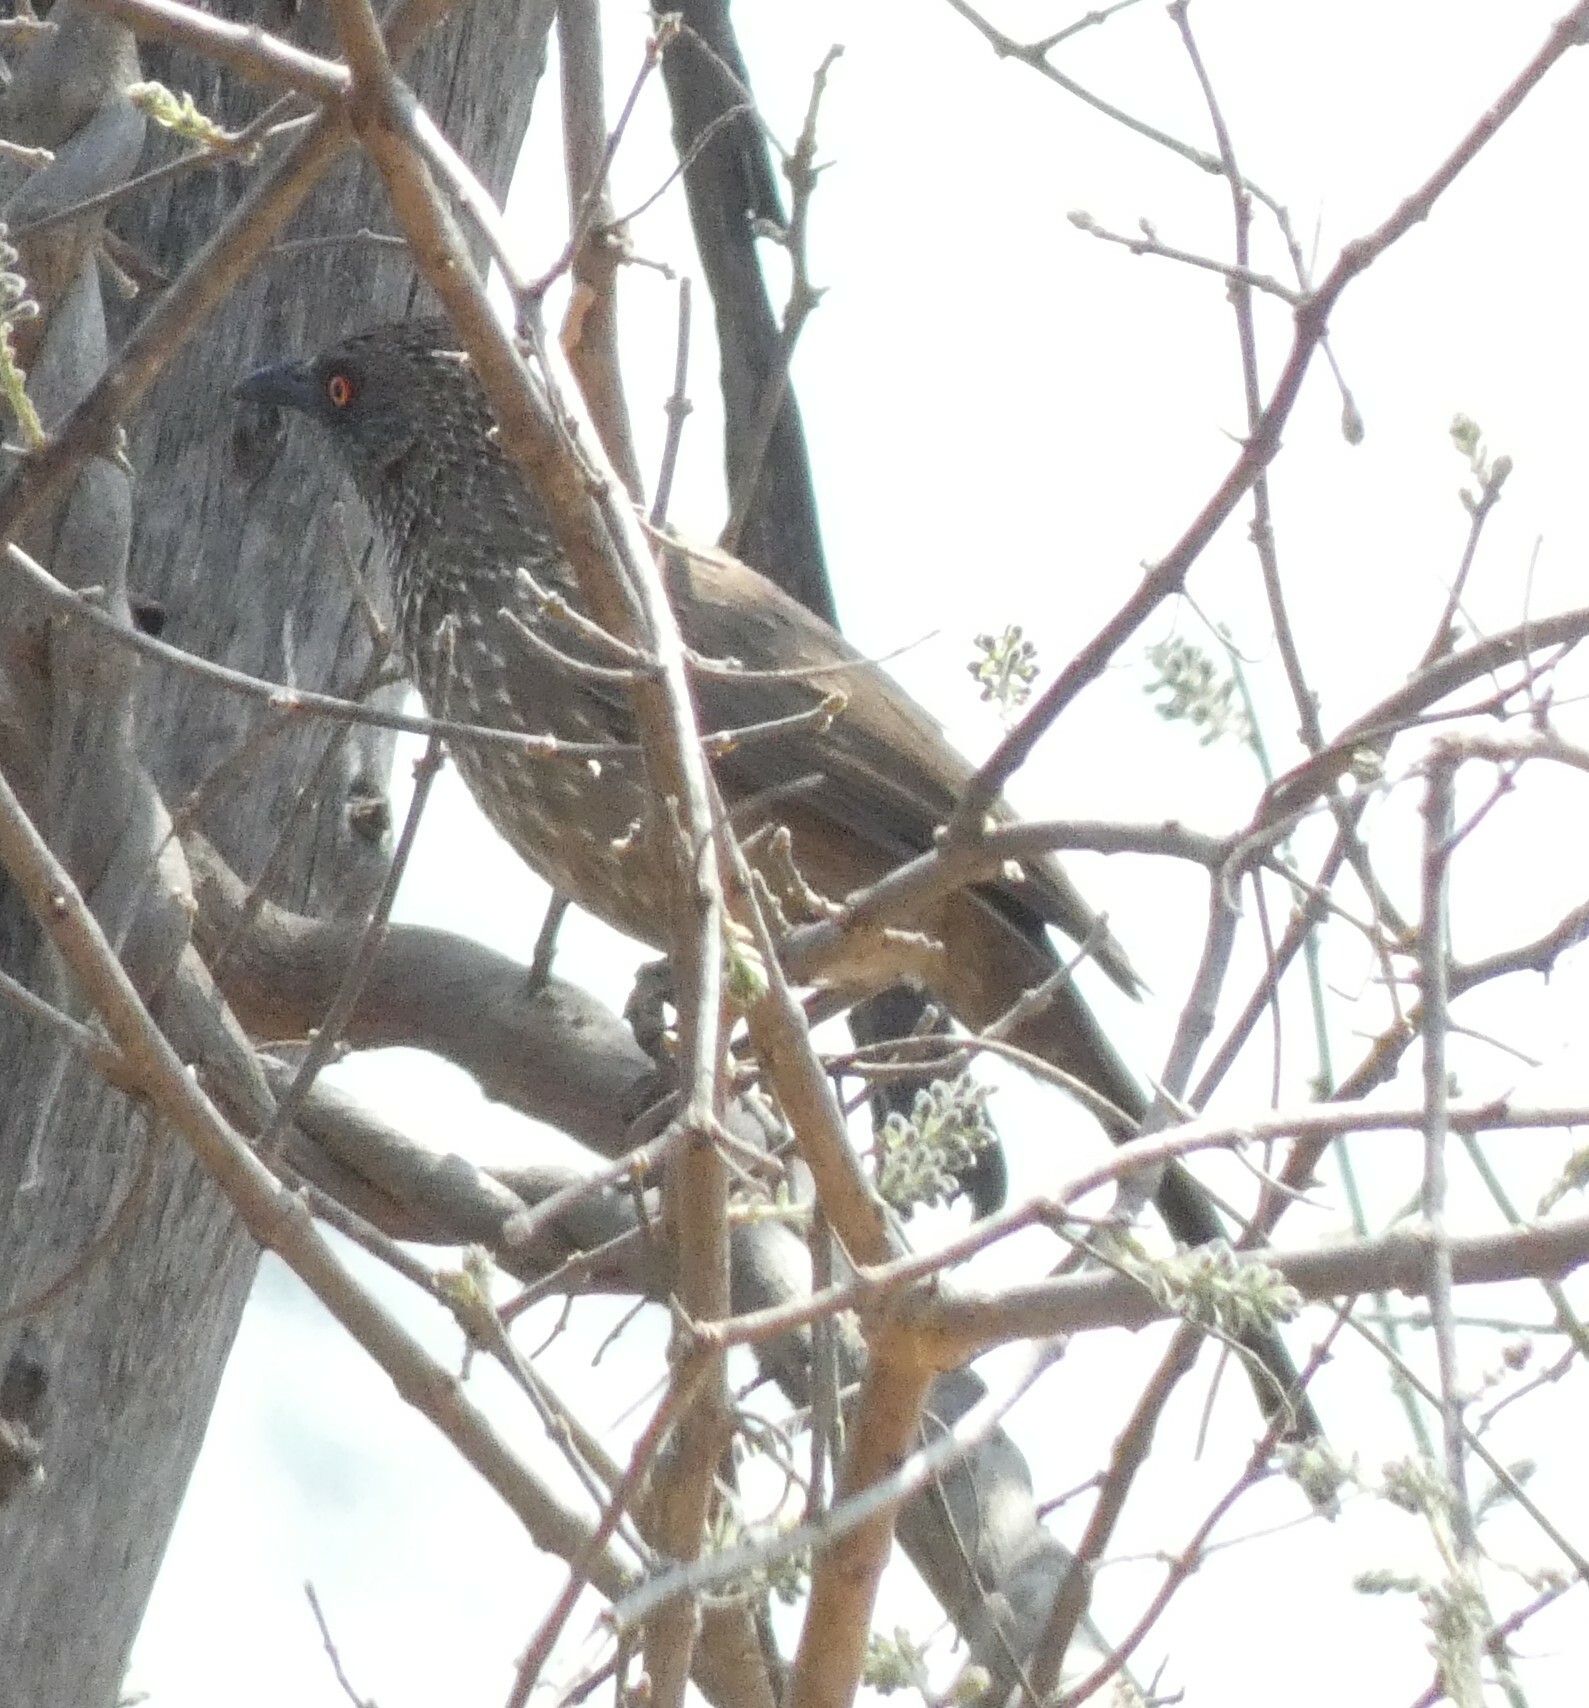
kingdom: Animalia
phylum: Chordata
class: Aves
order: Passeriformes
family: Leiothrichidae
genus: Turdoides
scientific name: Turdoides jardineii
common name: Arrow-marked babbler
